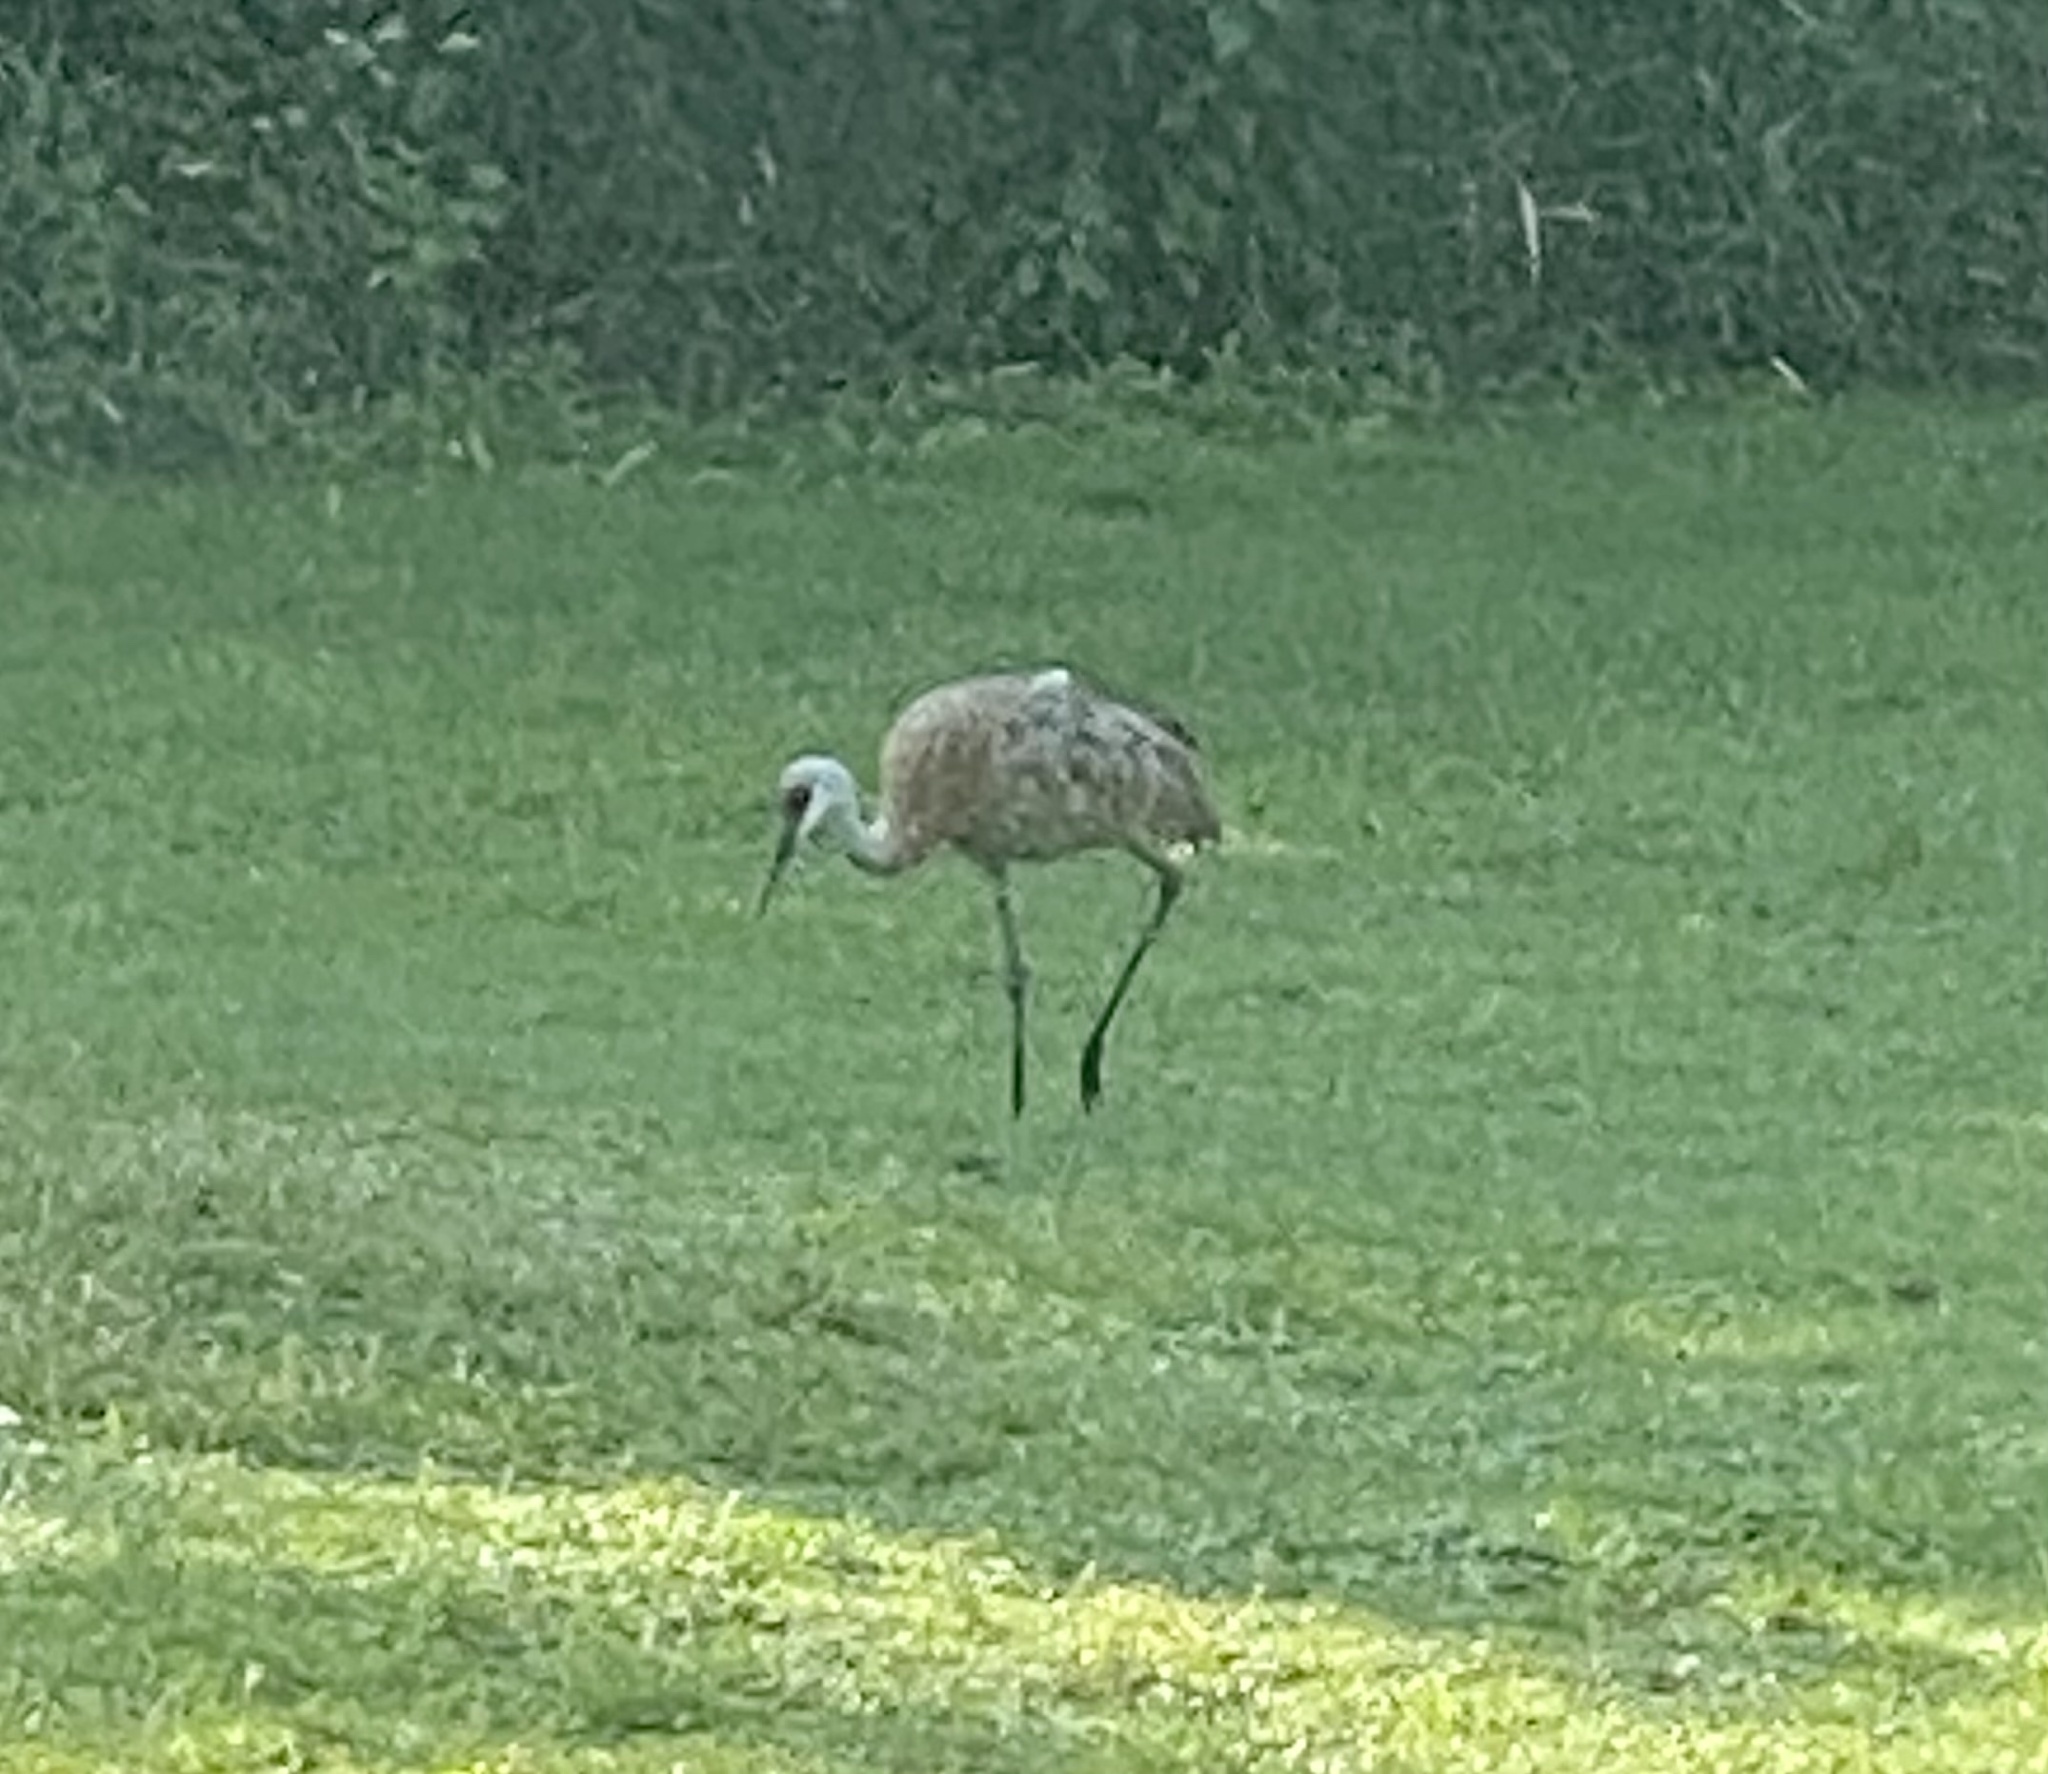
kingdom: Animalia
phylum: Chordata
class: Aves
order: Gruiformes
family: Gruidae
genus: Grus
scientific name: Grus canadensis
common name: Sandhill crane
